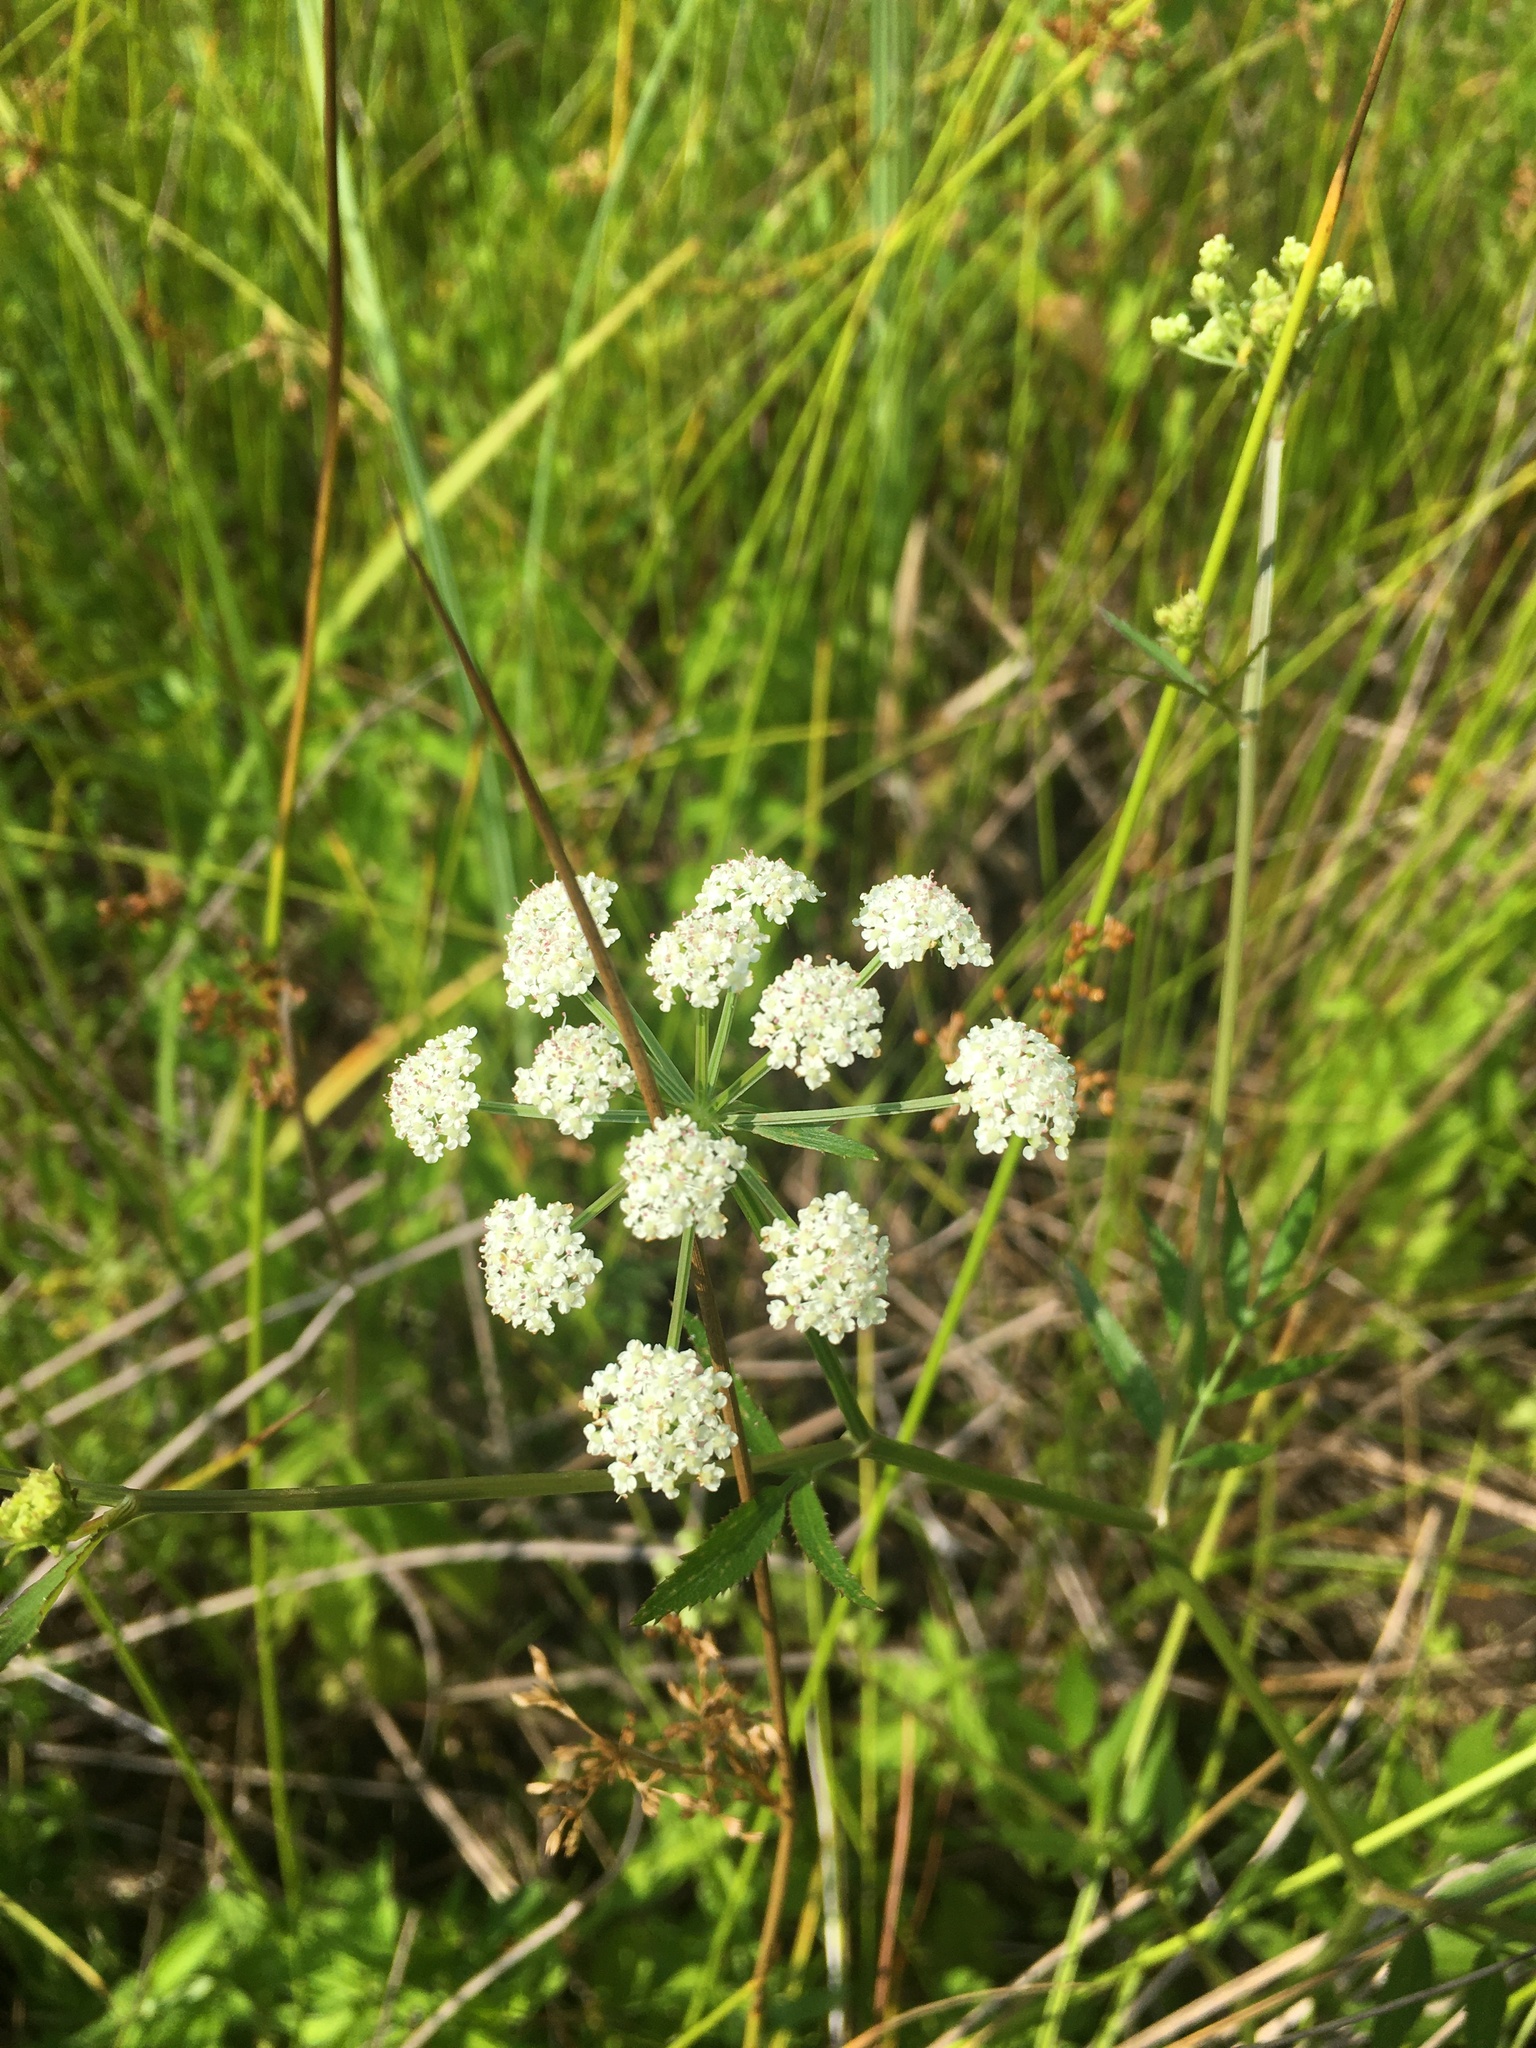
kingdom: Plantae
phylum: Tracheophyta
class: Magnoliopsida
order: Apiales
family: Apiaceae
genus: Sium
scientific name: Sium suave
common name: Hemlock water-parsnip
